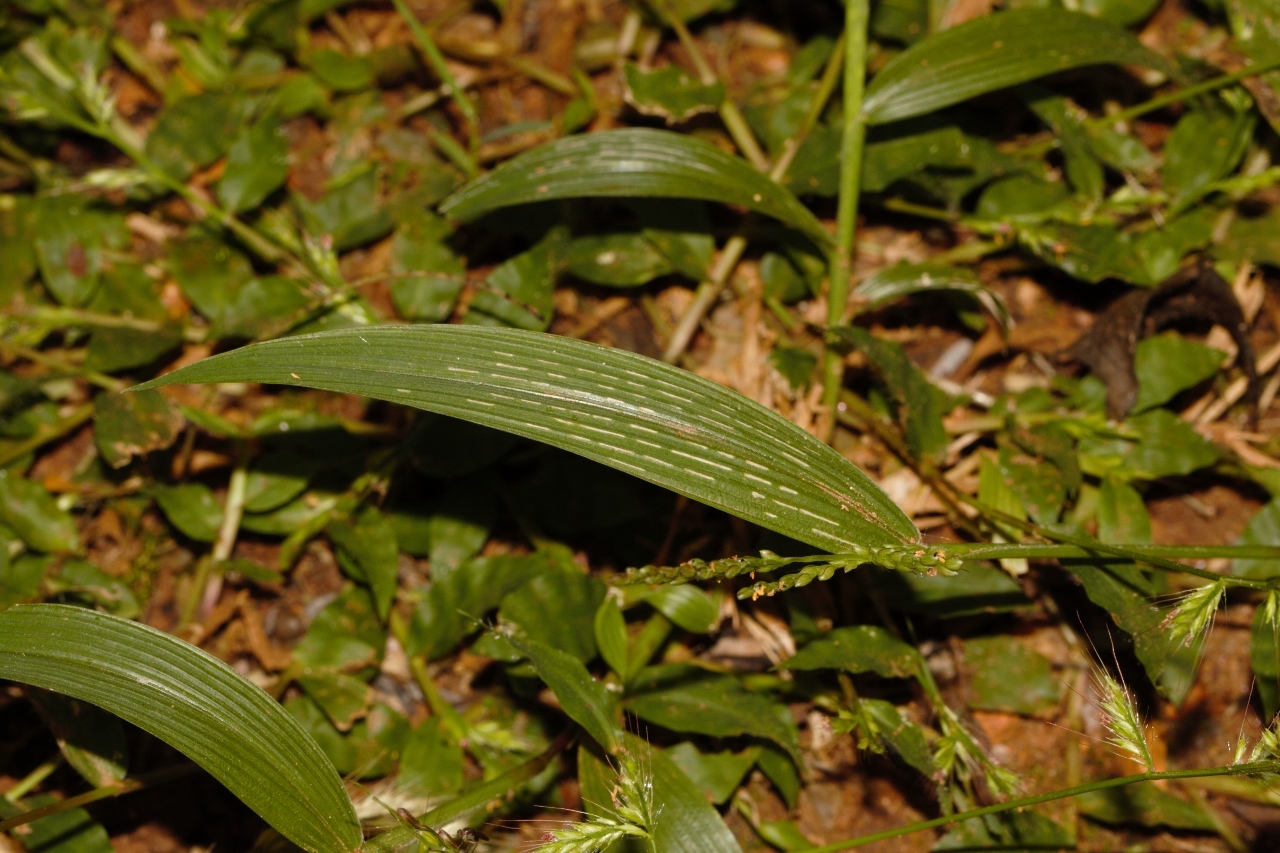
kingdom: Plantae
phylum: Tracheophyta
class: Liliopsida
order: Poales
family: Poaceae
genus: Setaria
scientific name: Setaria homonyma
